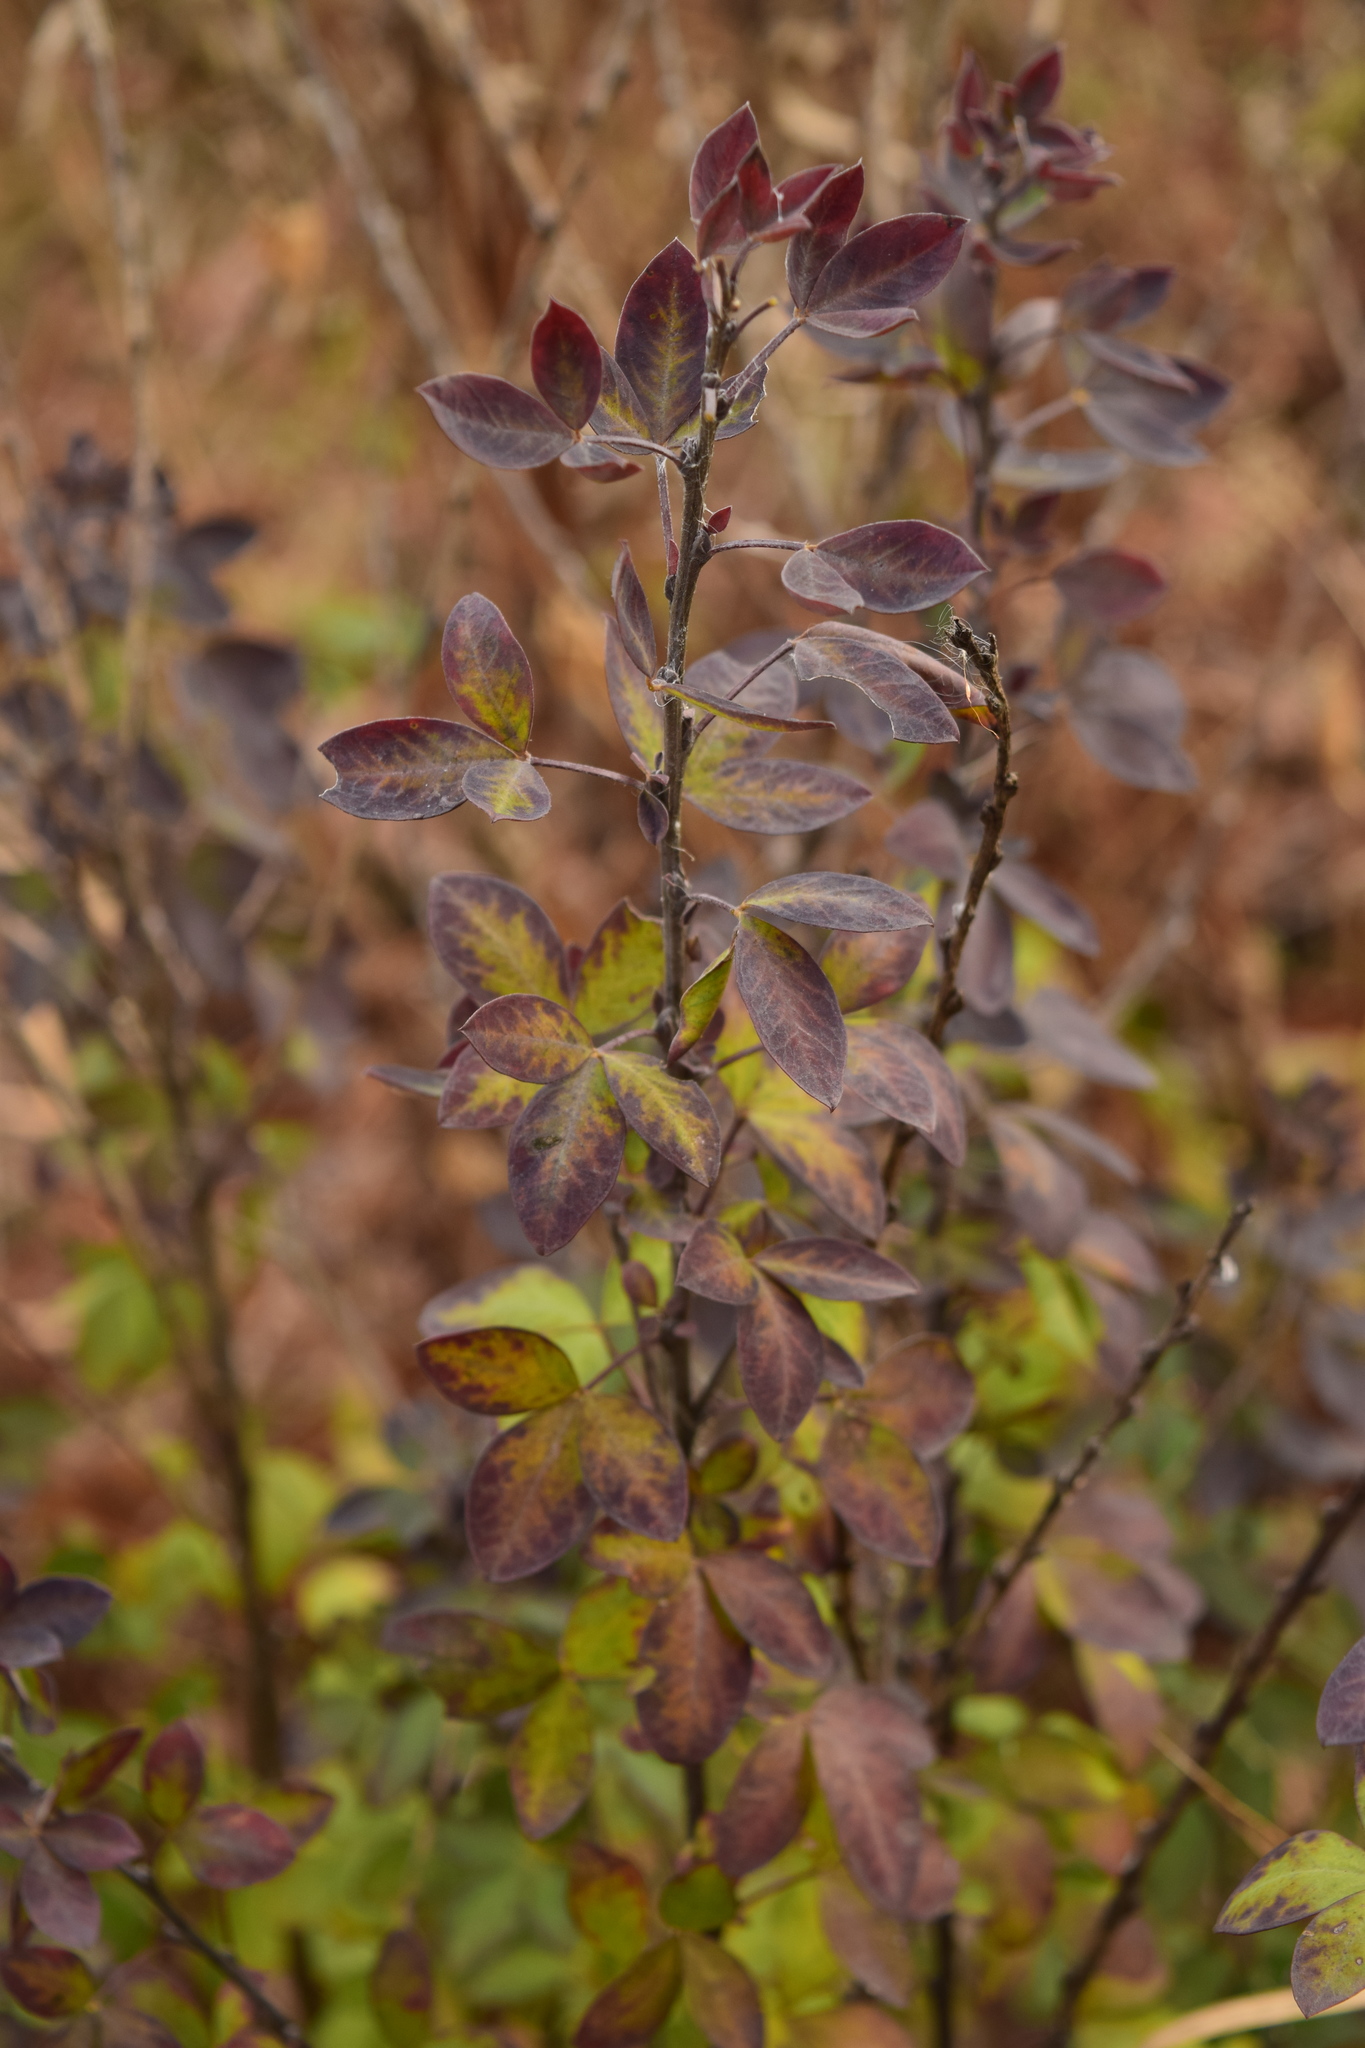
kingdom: Plantae
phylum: Tracheophyta
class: Magnoliopsida
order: Fabales
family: Fabaceae
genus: Chamaecytisus
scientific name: Chamaecytisus ruthenicus
